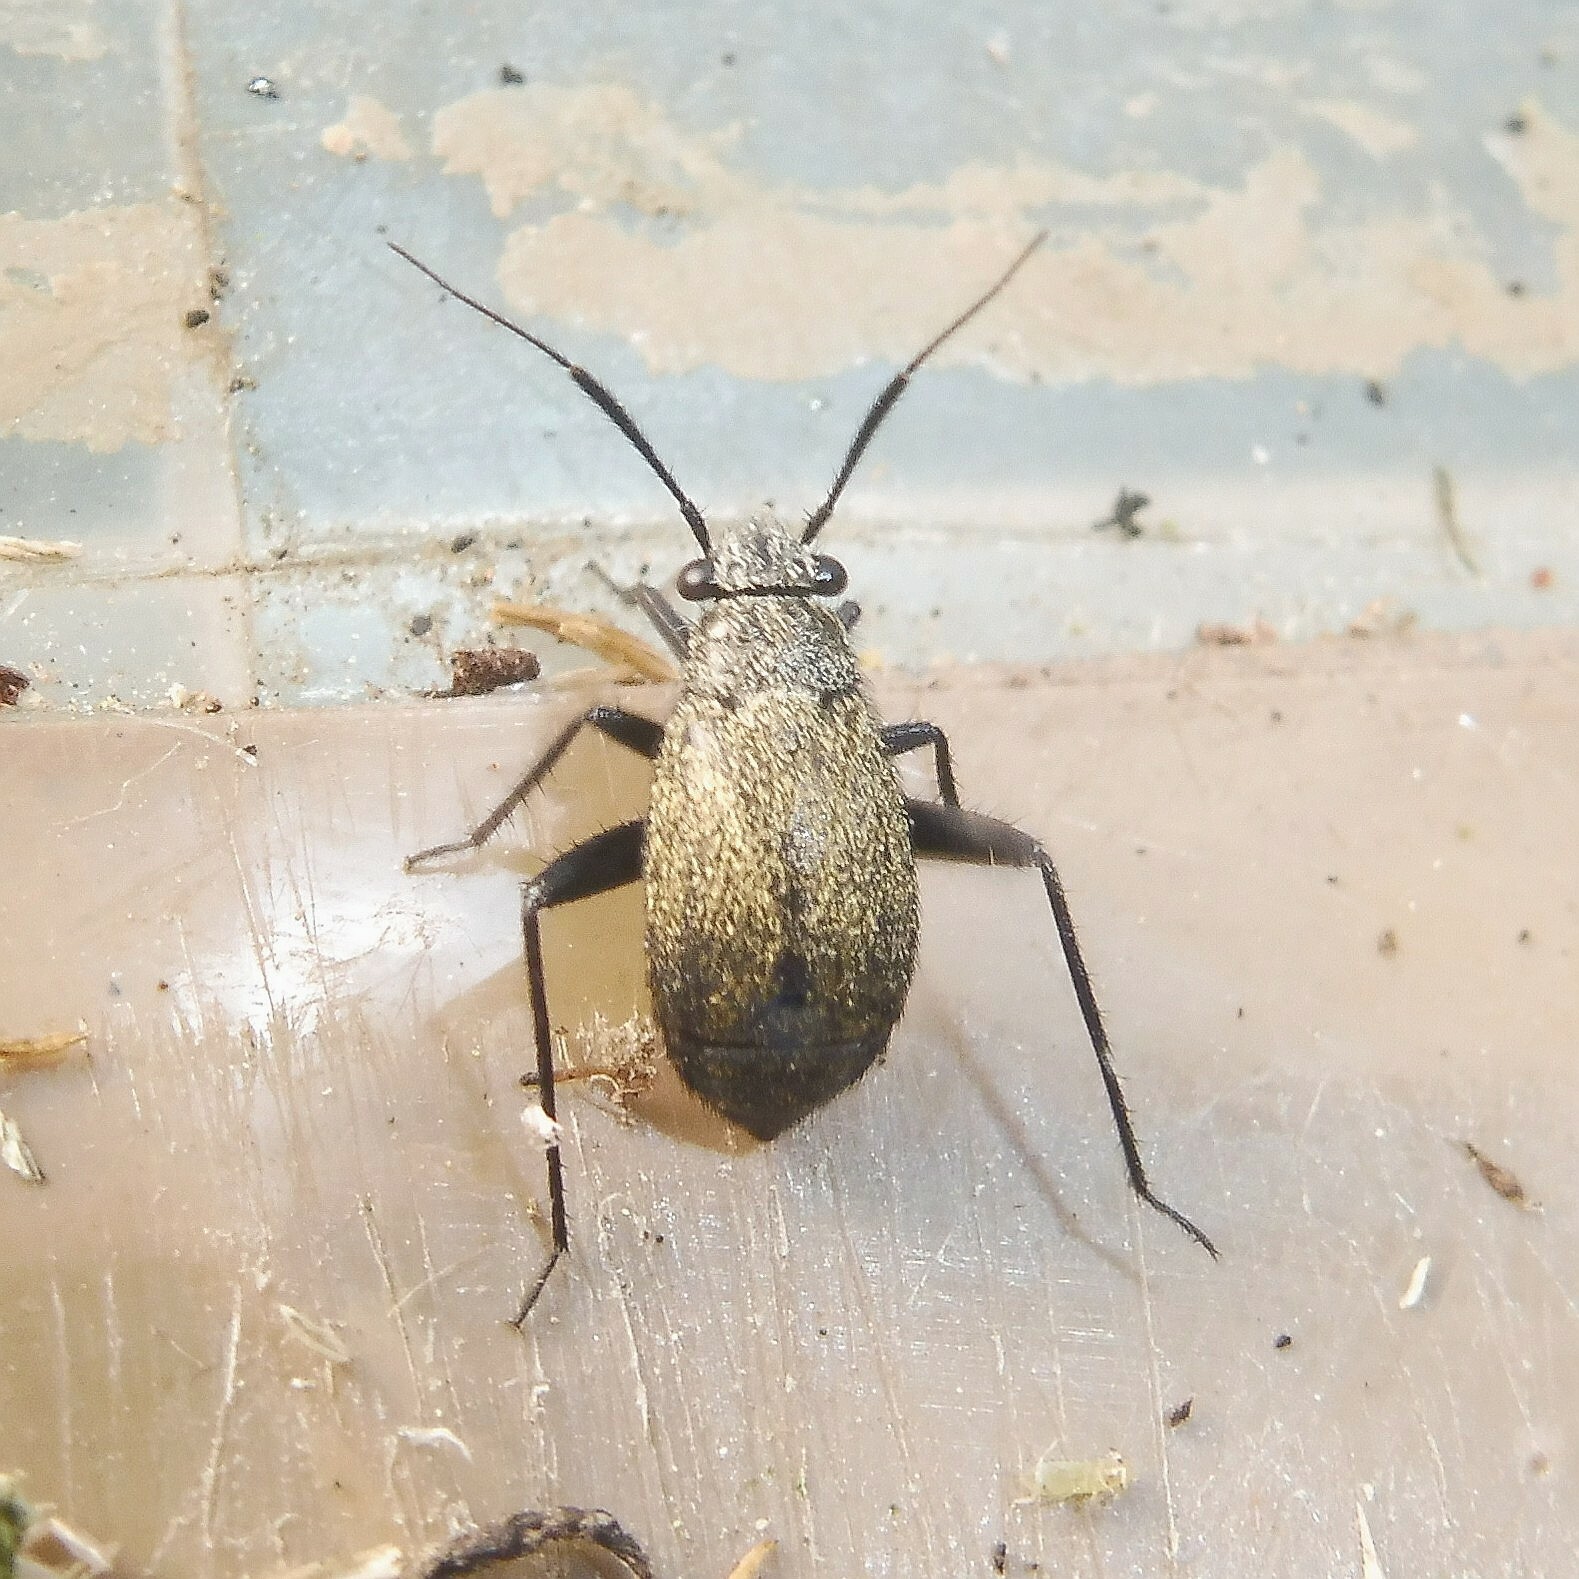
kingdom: Animalia
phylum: Arthropoda
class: Insecta
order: Hemiptera
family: Miridae
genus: Orthocephalus
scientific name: Orthocephalus coriaceus
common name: Plant bug
